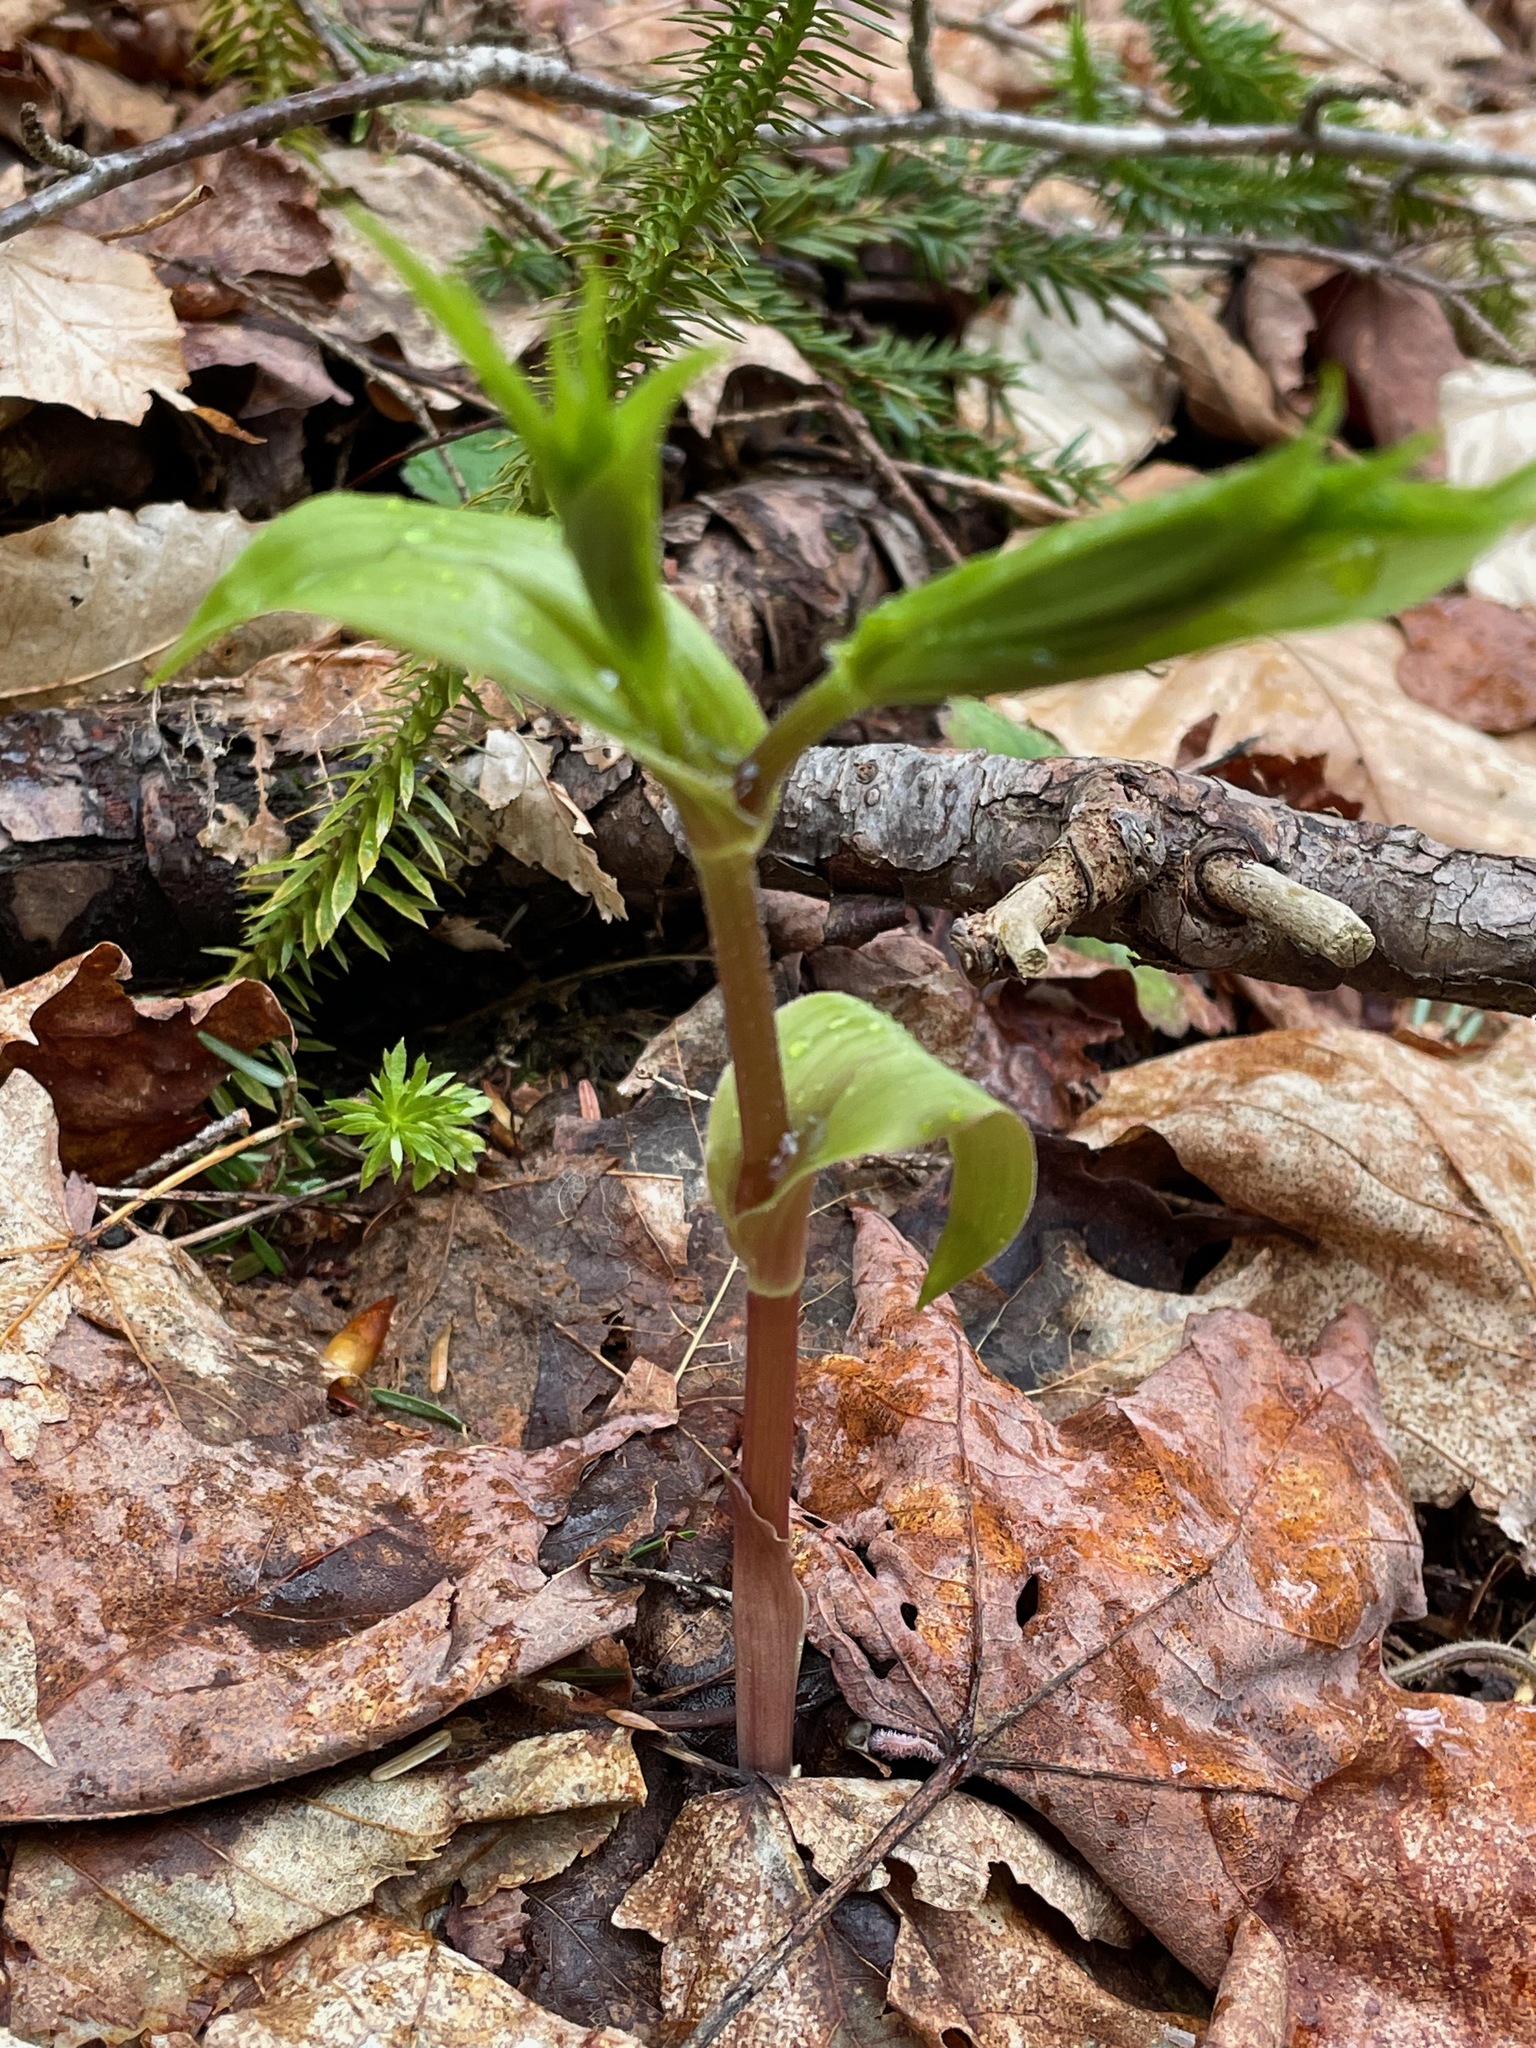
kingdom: Plantae
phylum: Tracheophyta
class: Liliopsida
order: Liliales
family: Liliaceae
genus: Streptopus
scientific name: Streptopus lanceolatus
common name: Rose mandarin
